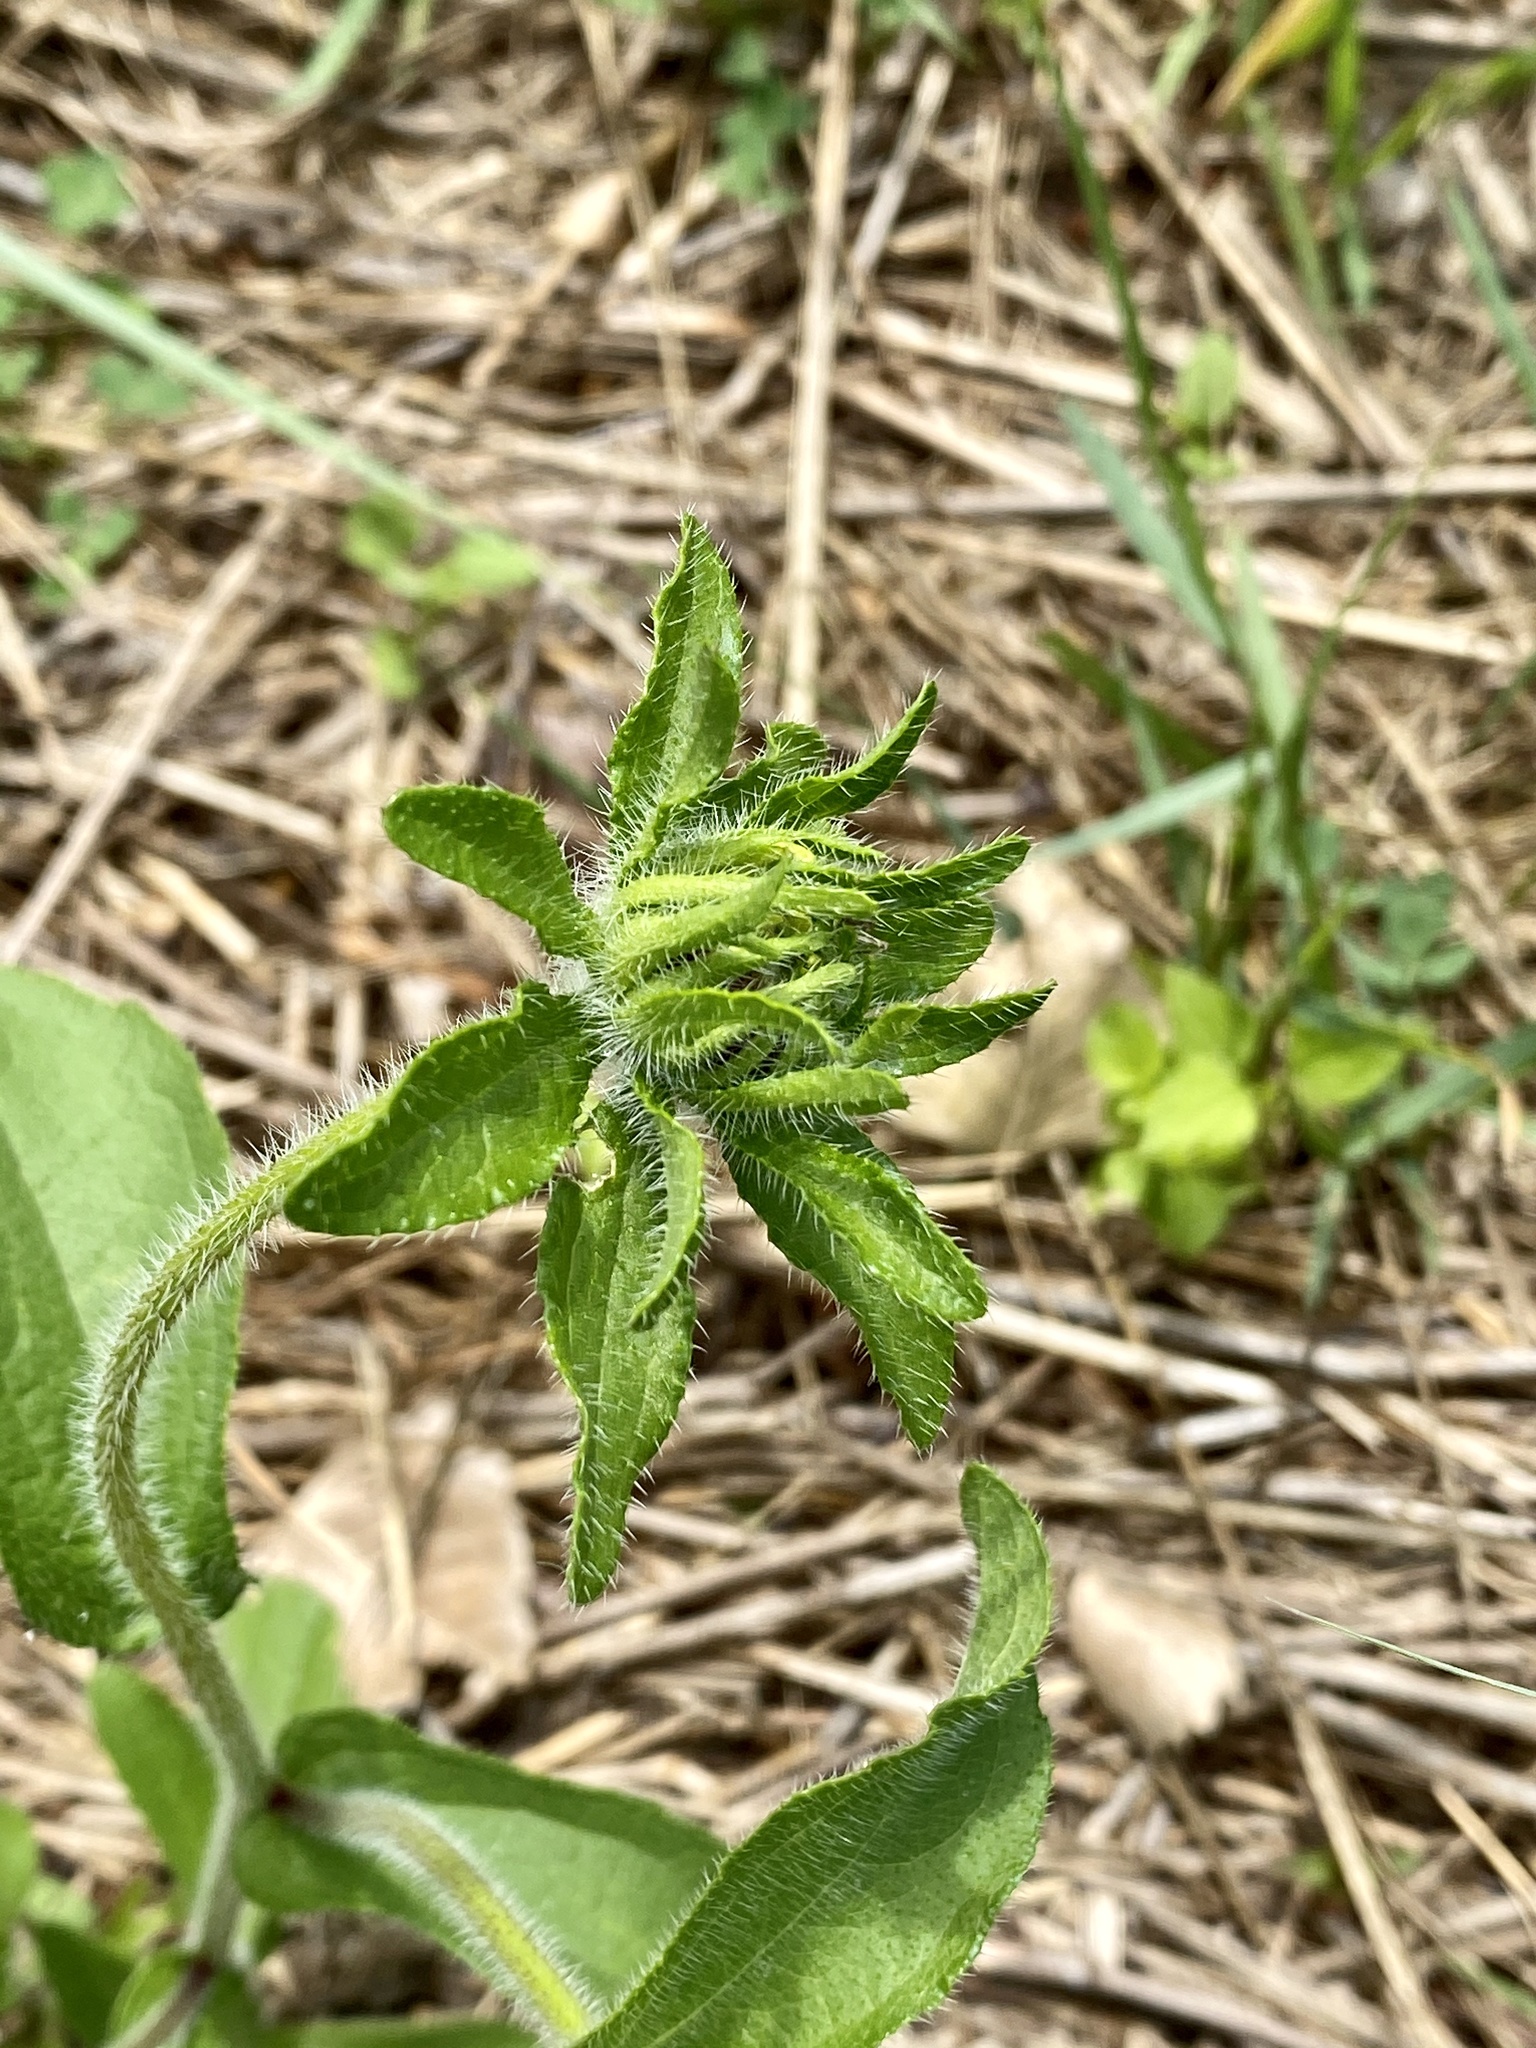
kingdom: Plantae
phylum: Tracheophyta
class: Magnoliopsida
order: Asterales
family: Asteraceae
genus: Rudbeckia
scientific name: Rudbeckia hirta
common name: Black-eyed-susan
